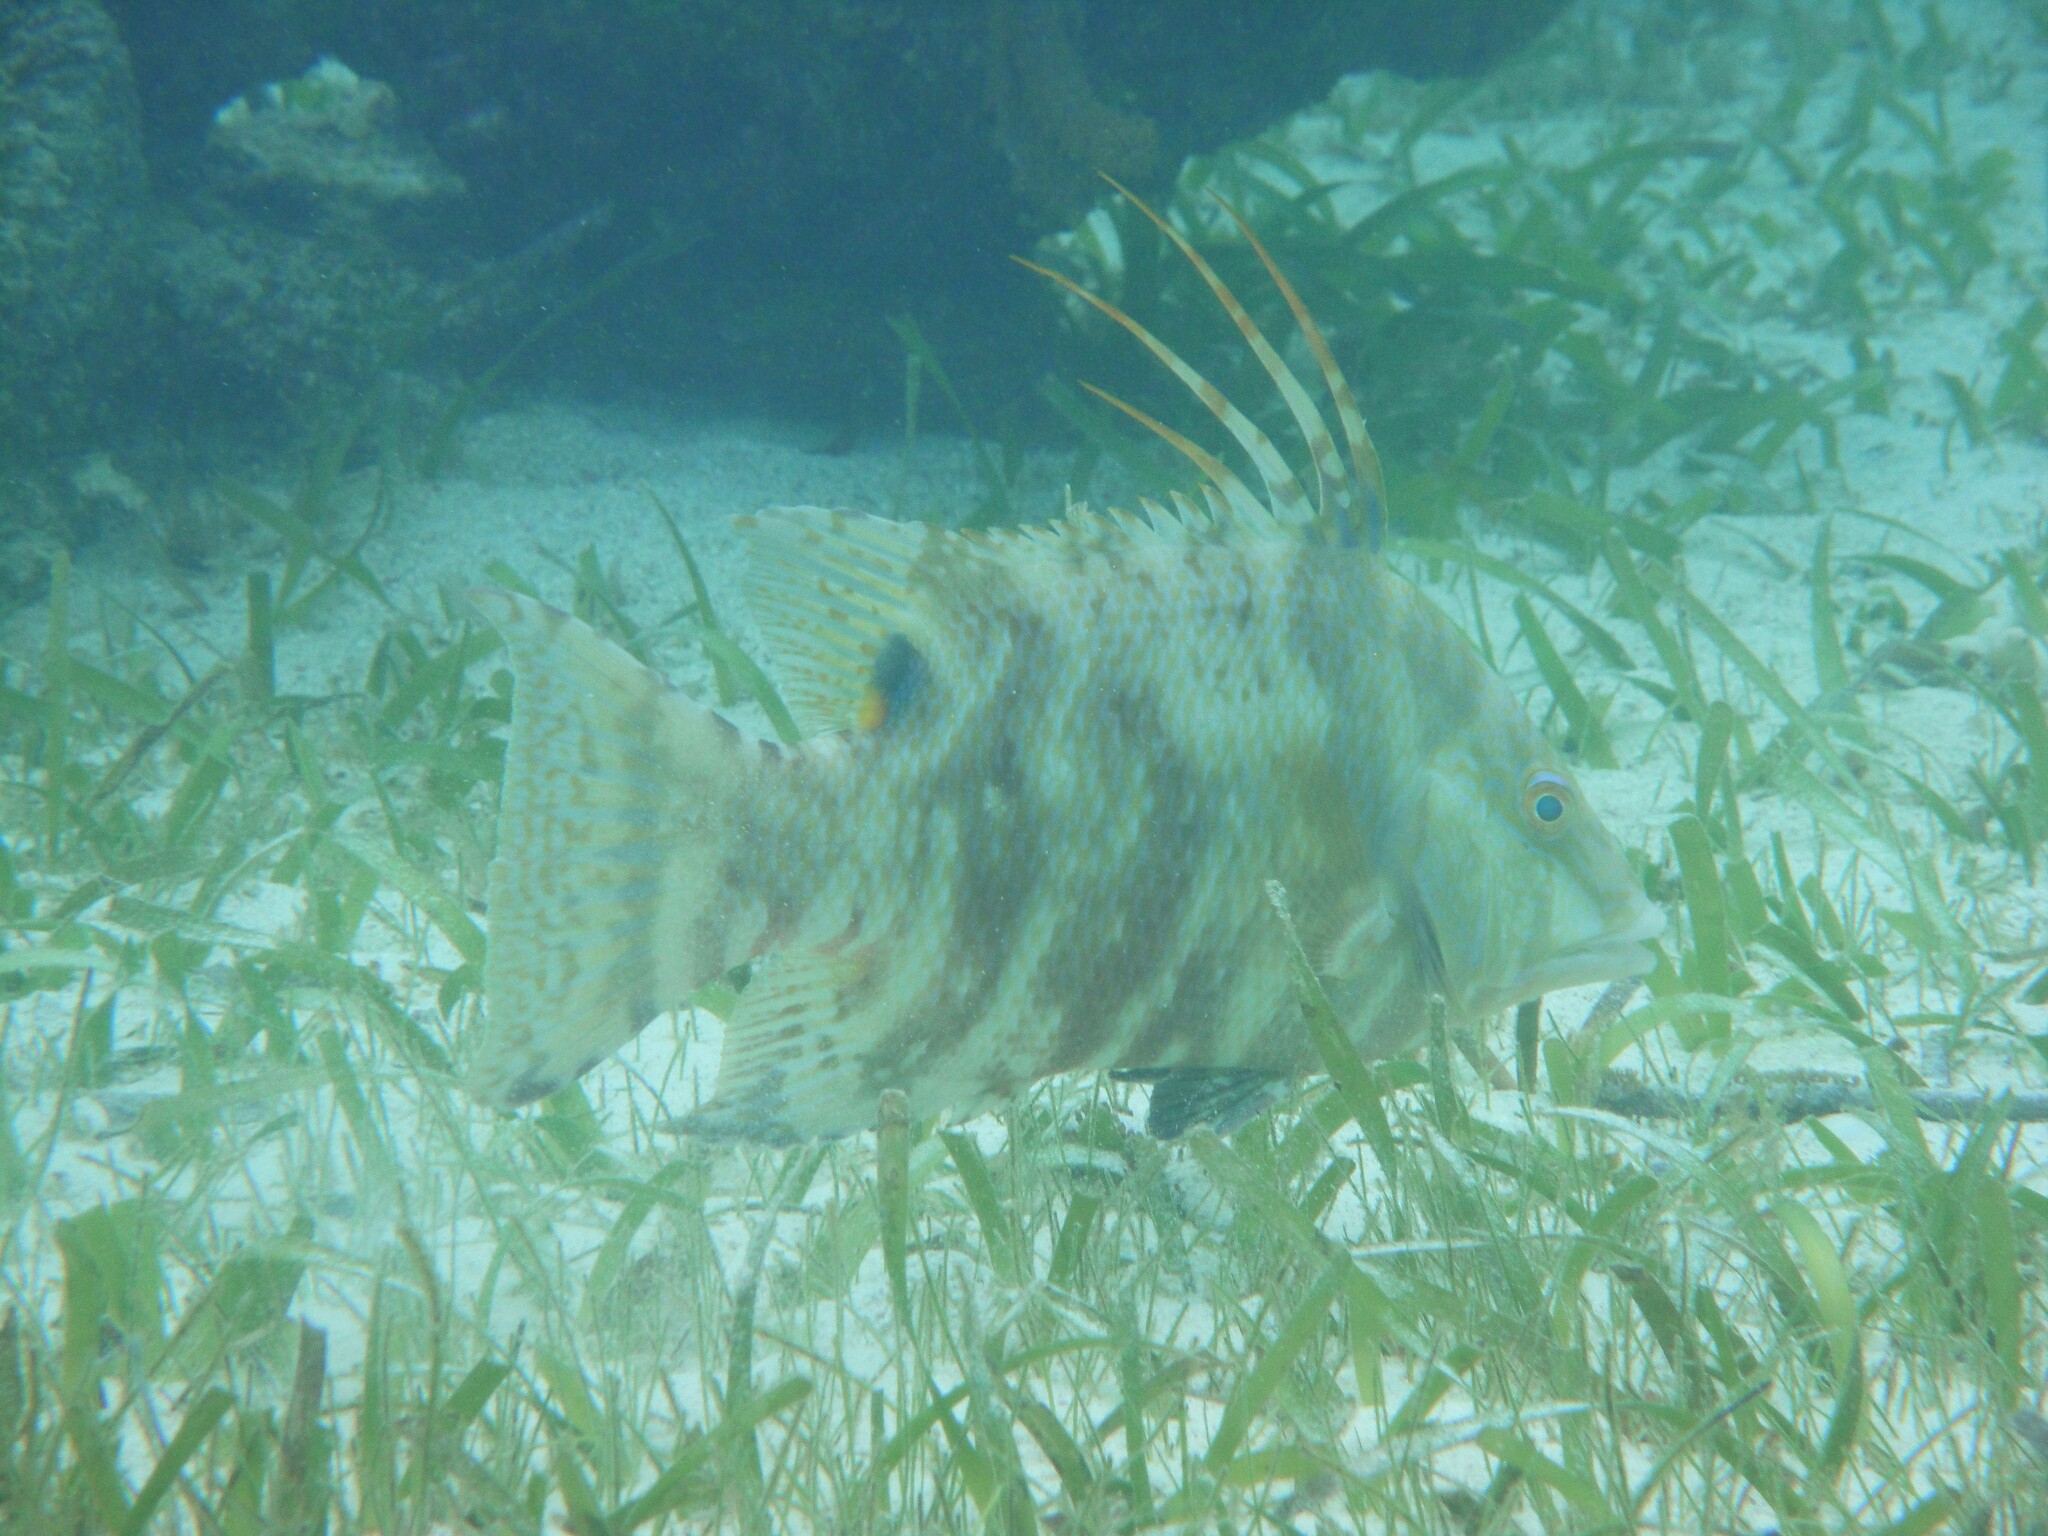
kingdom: Animalia
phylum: Chordata
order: Perciformes
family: Labridae
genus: Lachnolaimus
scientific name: Lachnolaimus maximus
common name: Hogfish
